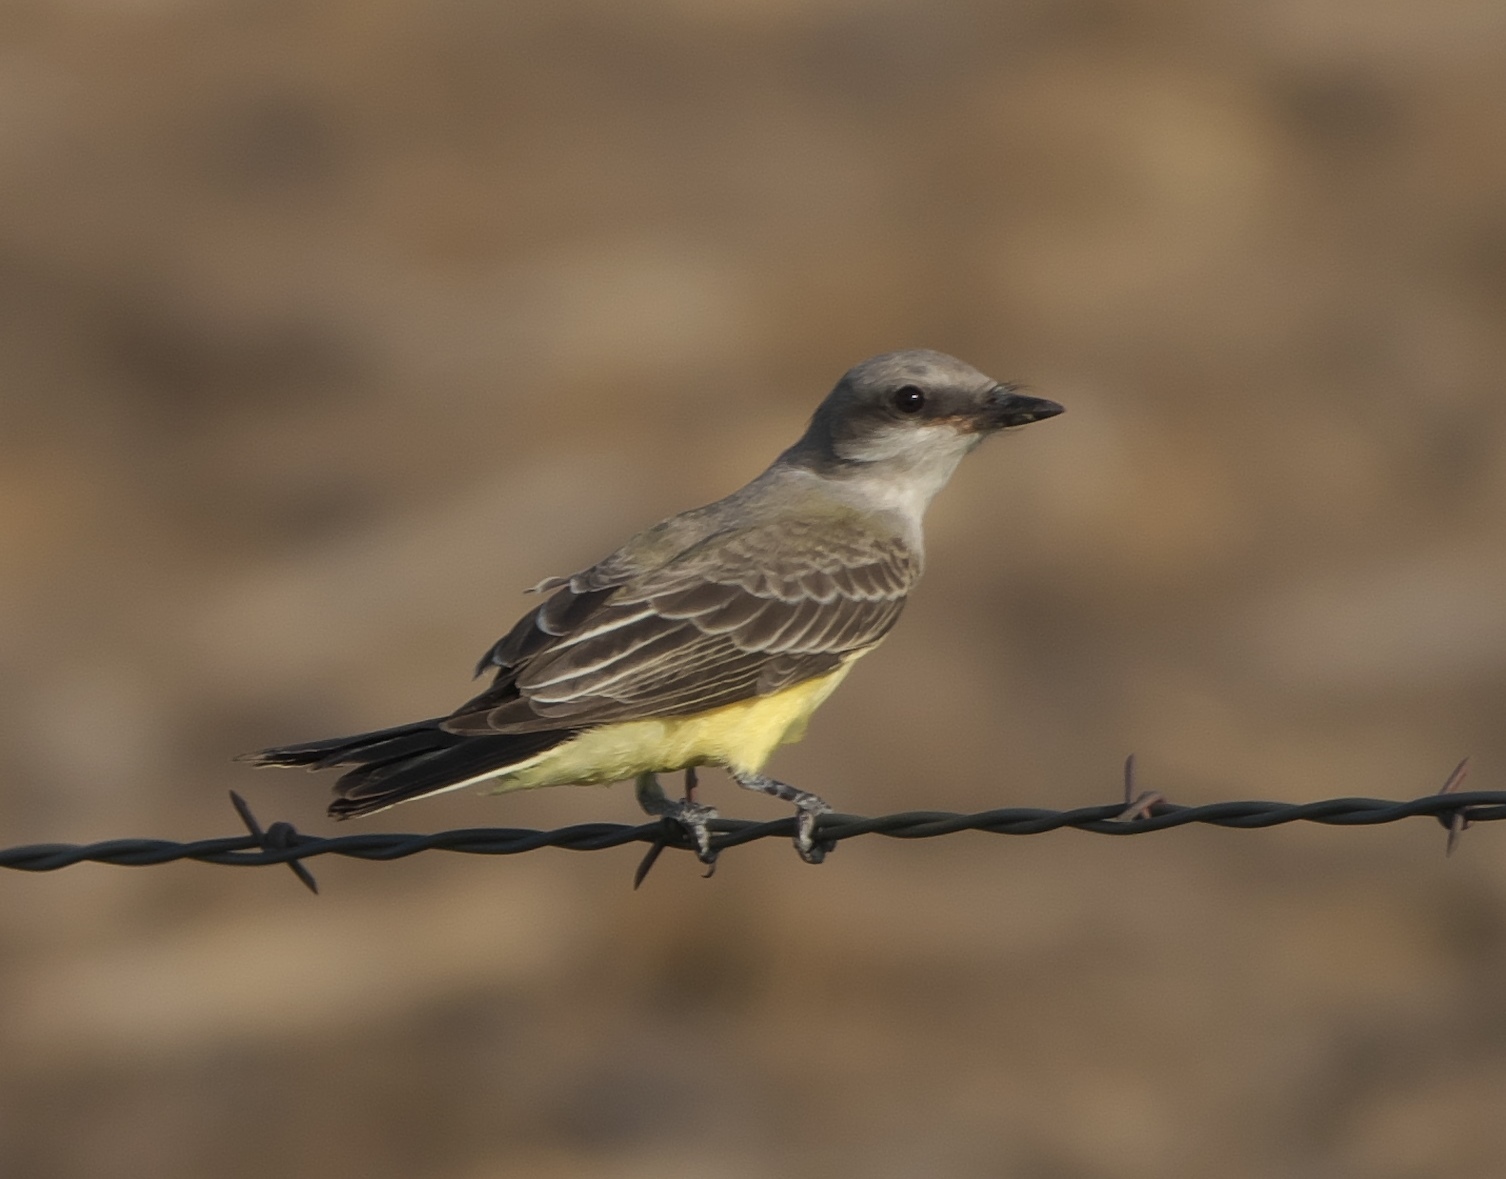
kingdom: Animalia
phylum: Chordata
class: Aves
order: Passeriformes
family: Tyrannidae
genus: Tyrannus
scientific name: Tyrannus verticalis
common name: Western kingbird
